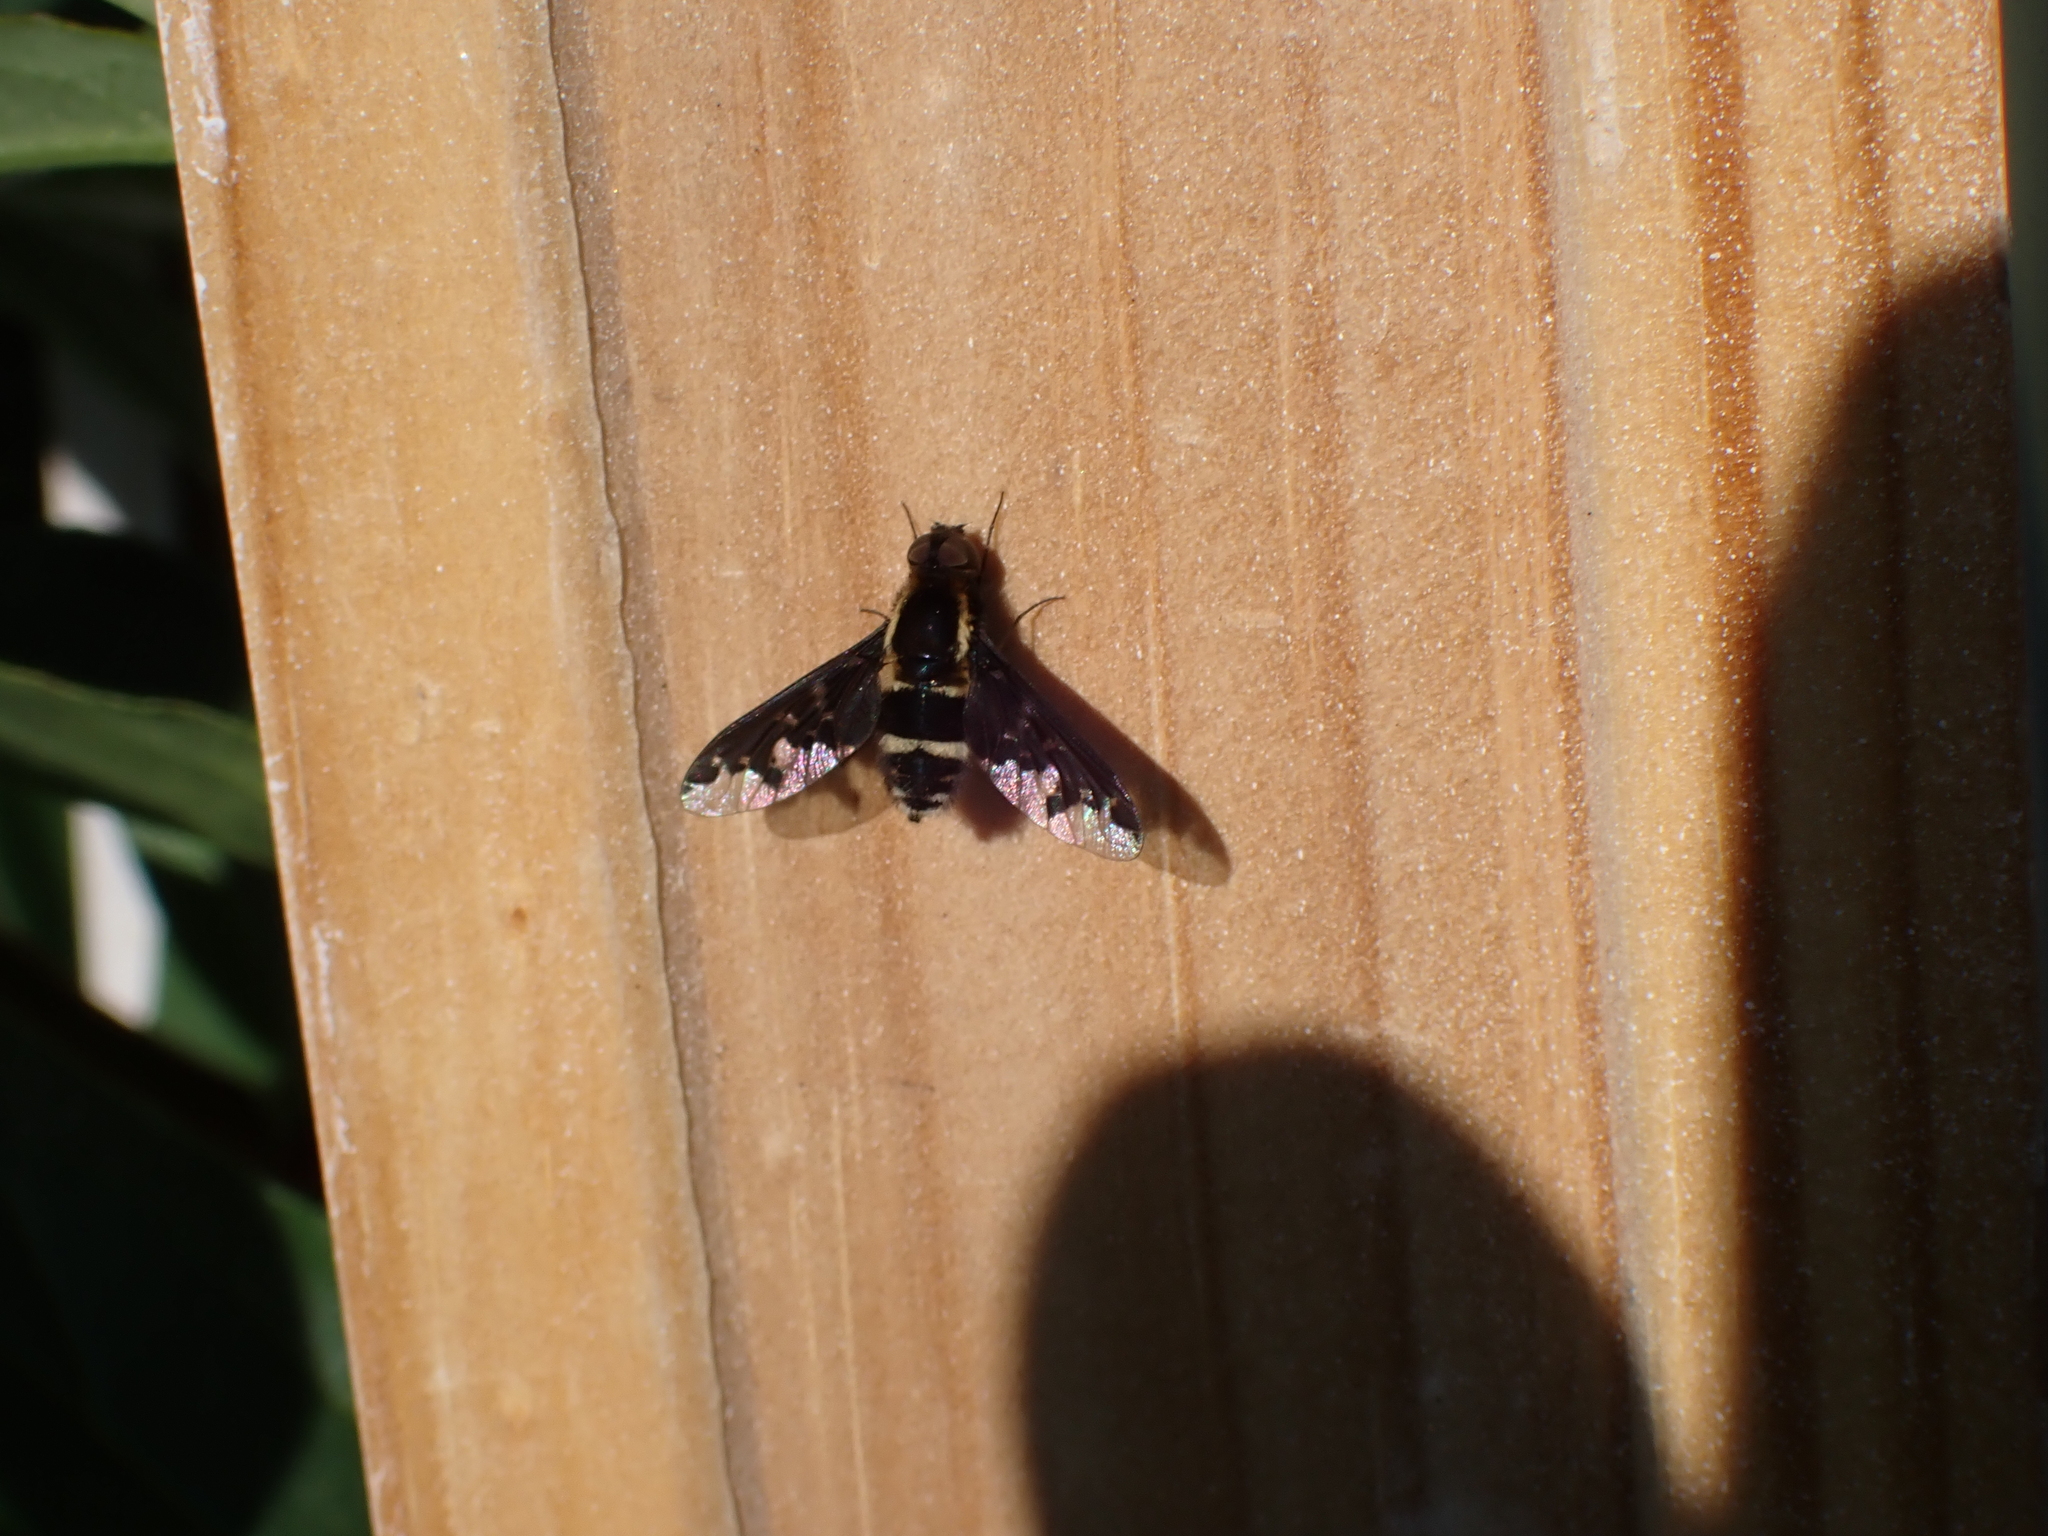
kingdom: Animalia
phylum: Arthropoda
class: Insecta
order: Diptera
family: Bombyliidae
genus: Hemipenthes
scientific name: Hemipenthes maura
